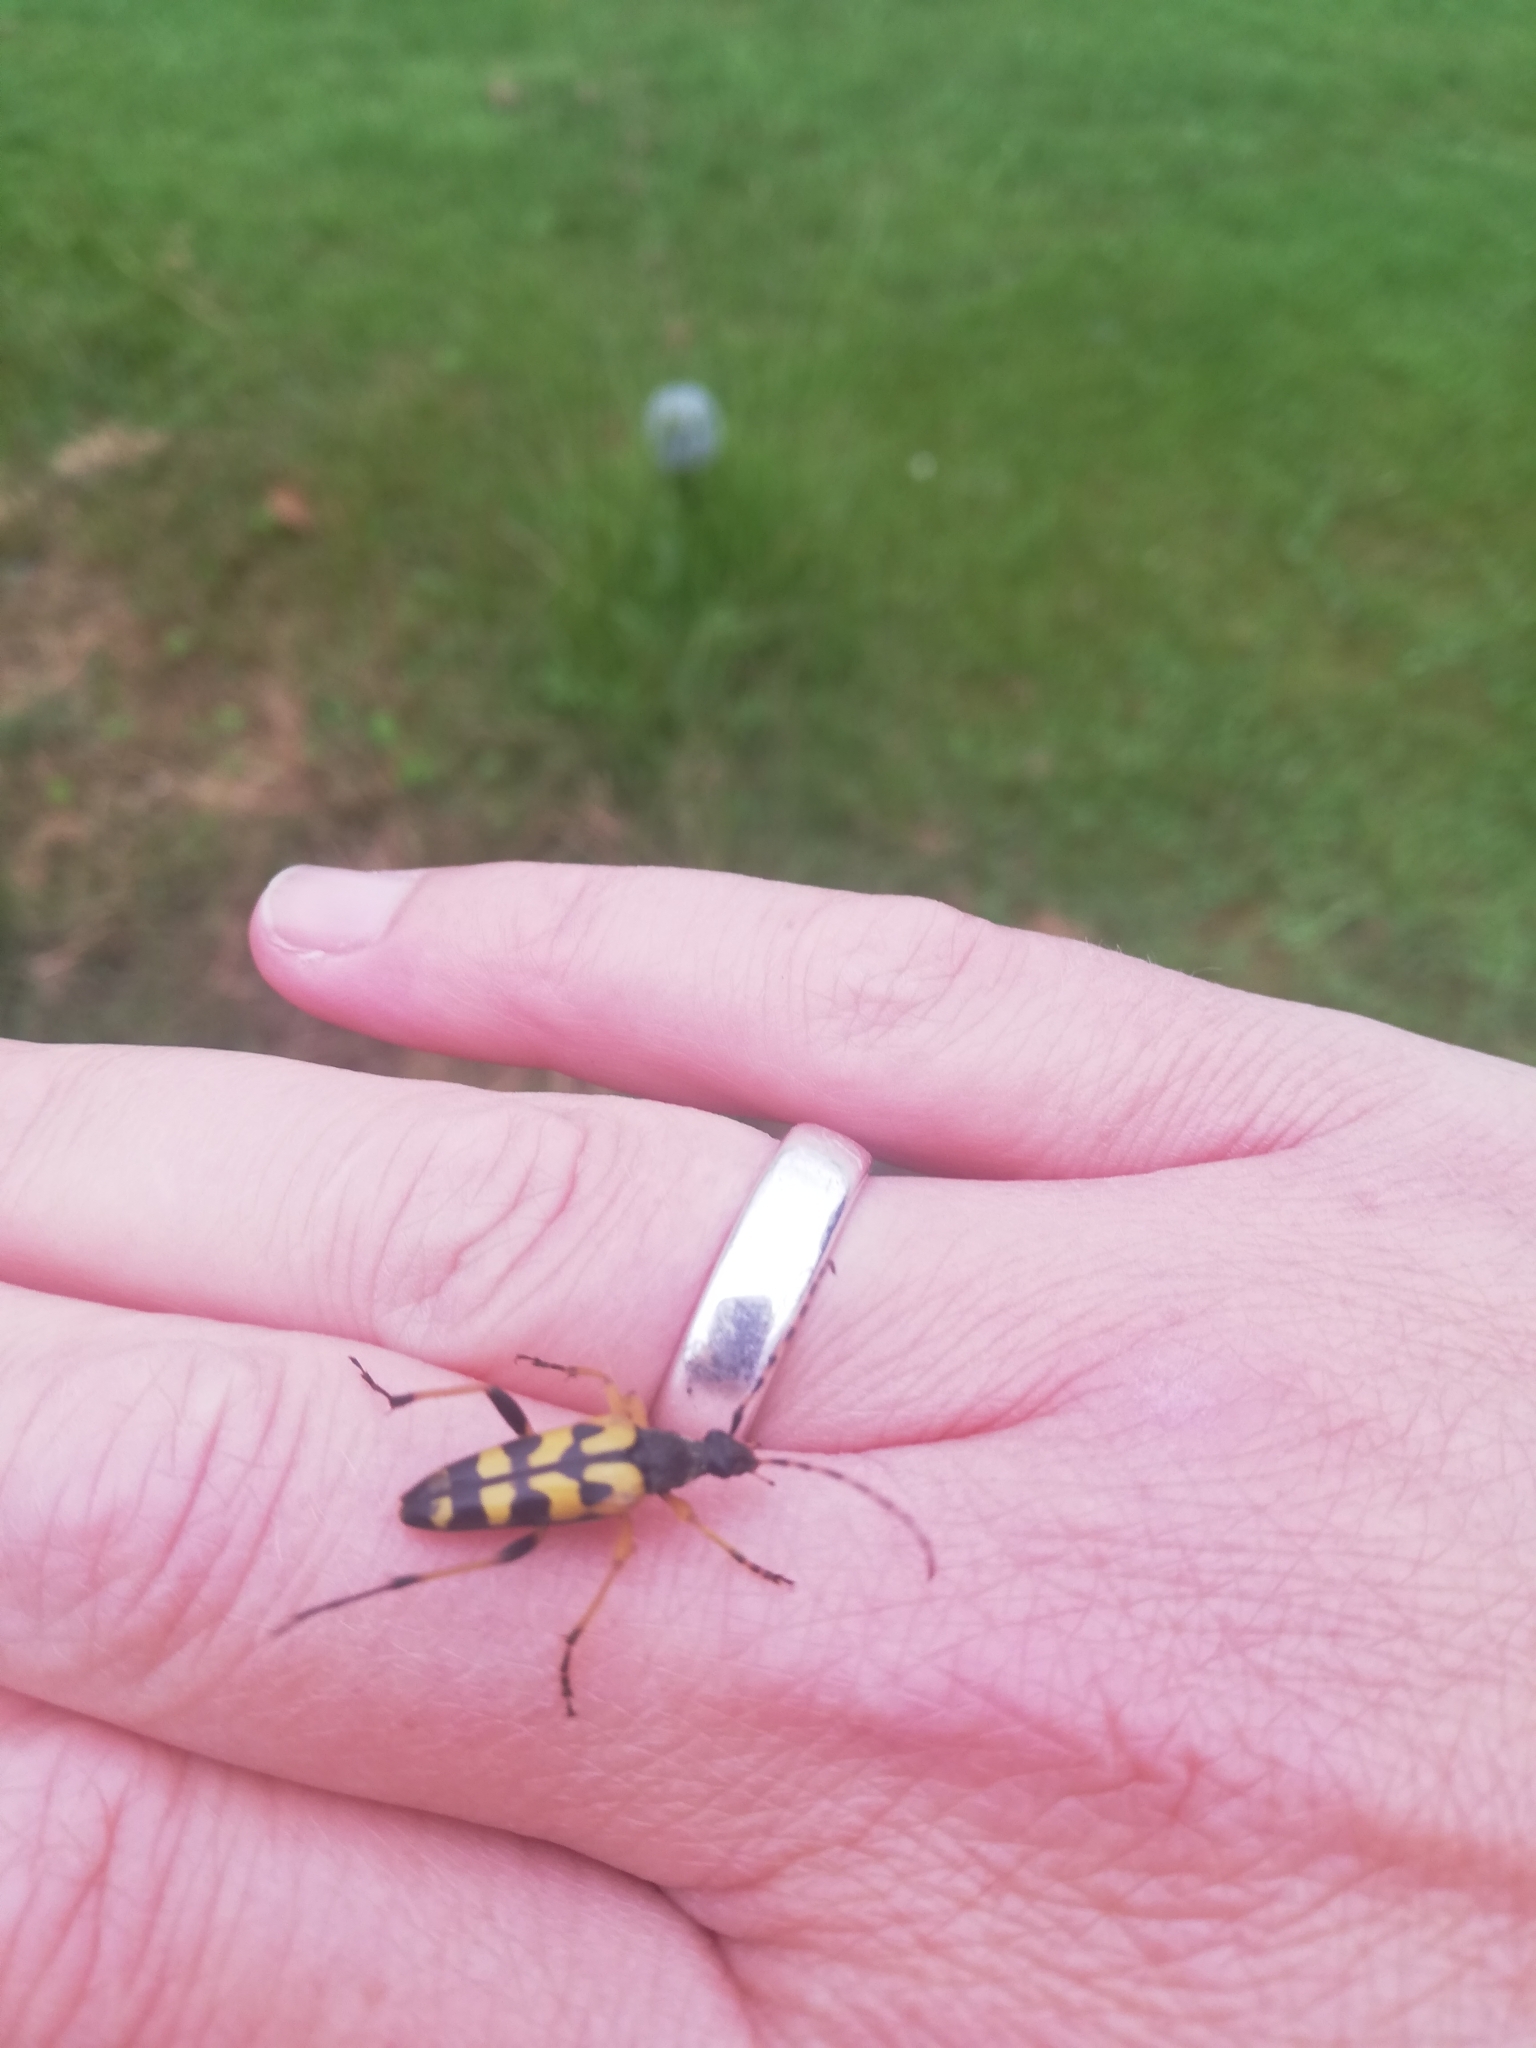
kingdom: Animalia
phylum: Arthropoda
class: Insecta
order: Coleoptera
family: Cerambycidae
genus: Rutpela
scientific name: Rutpela maculata
